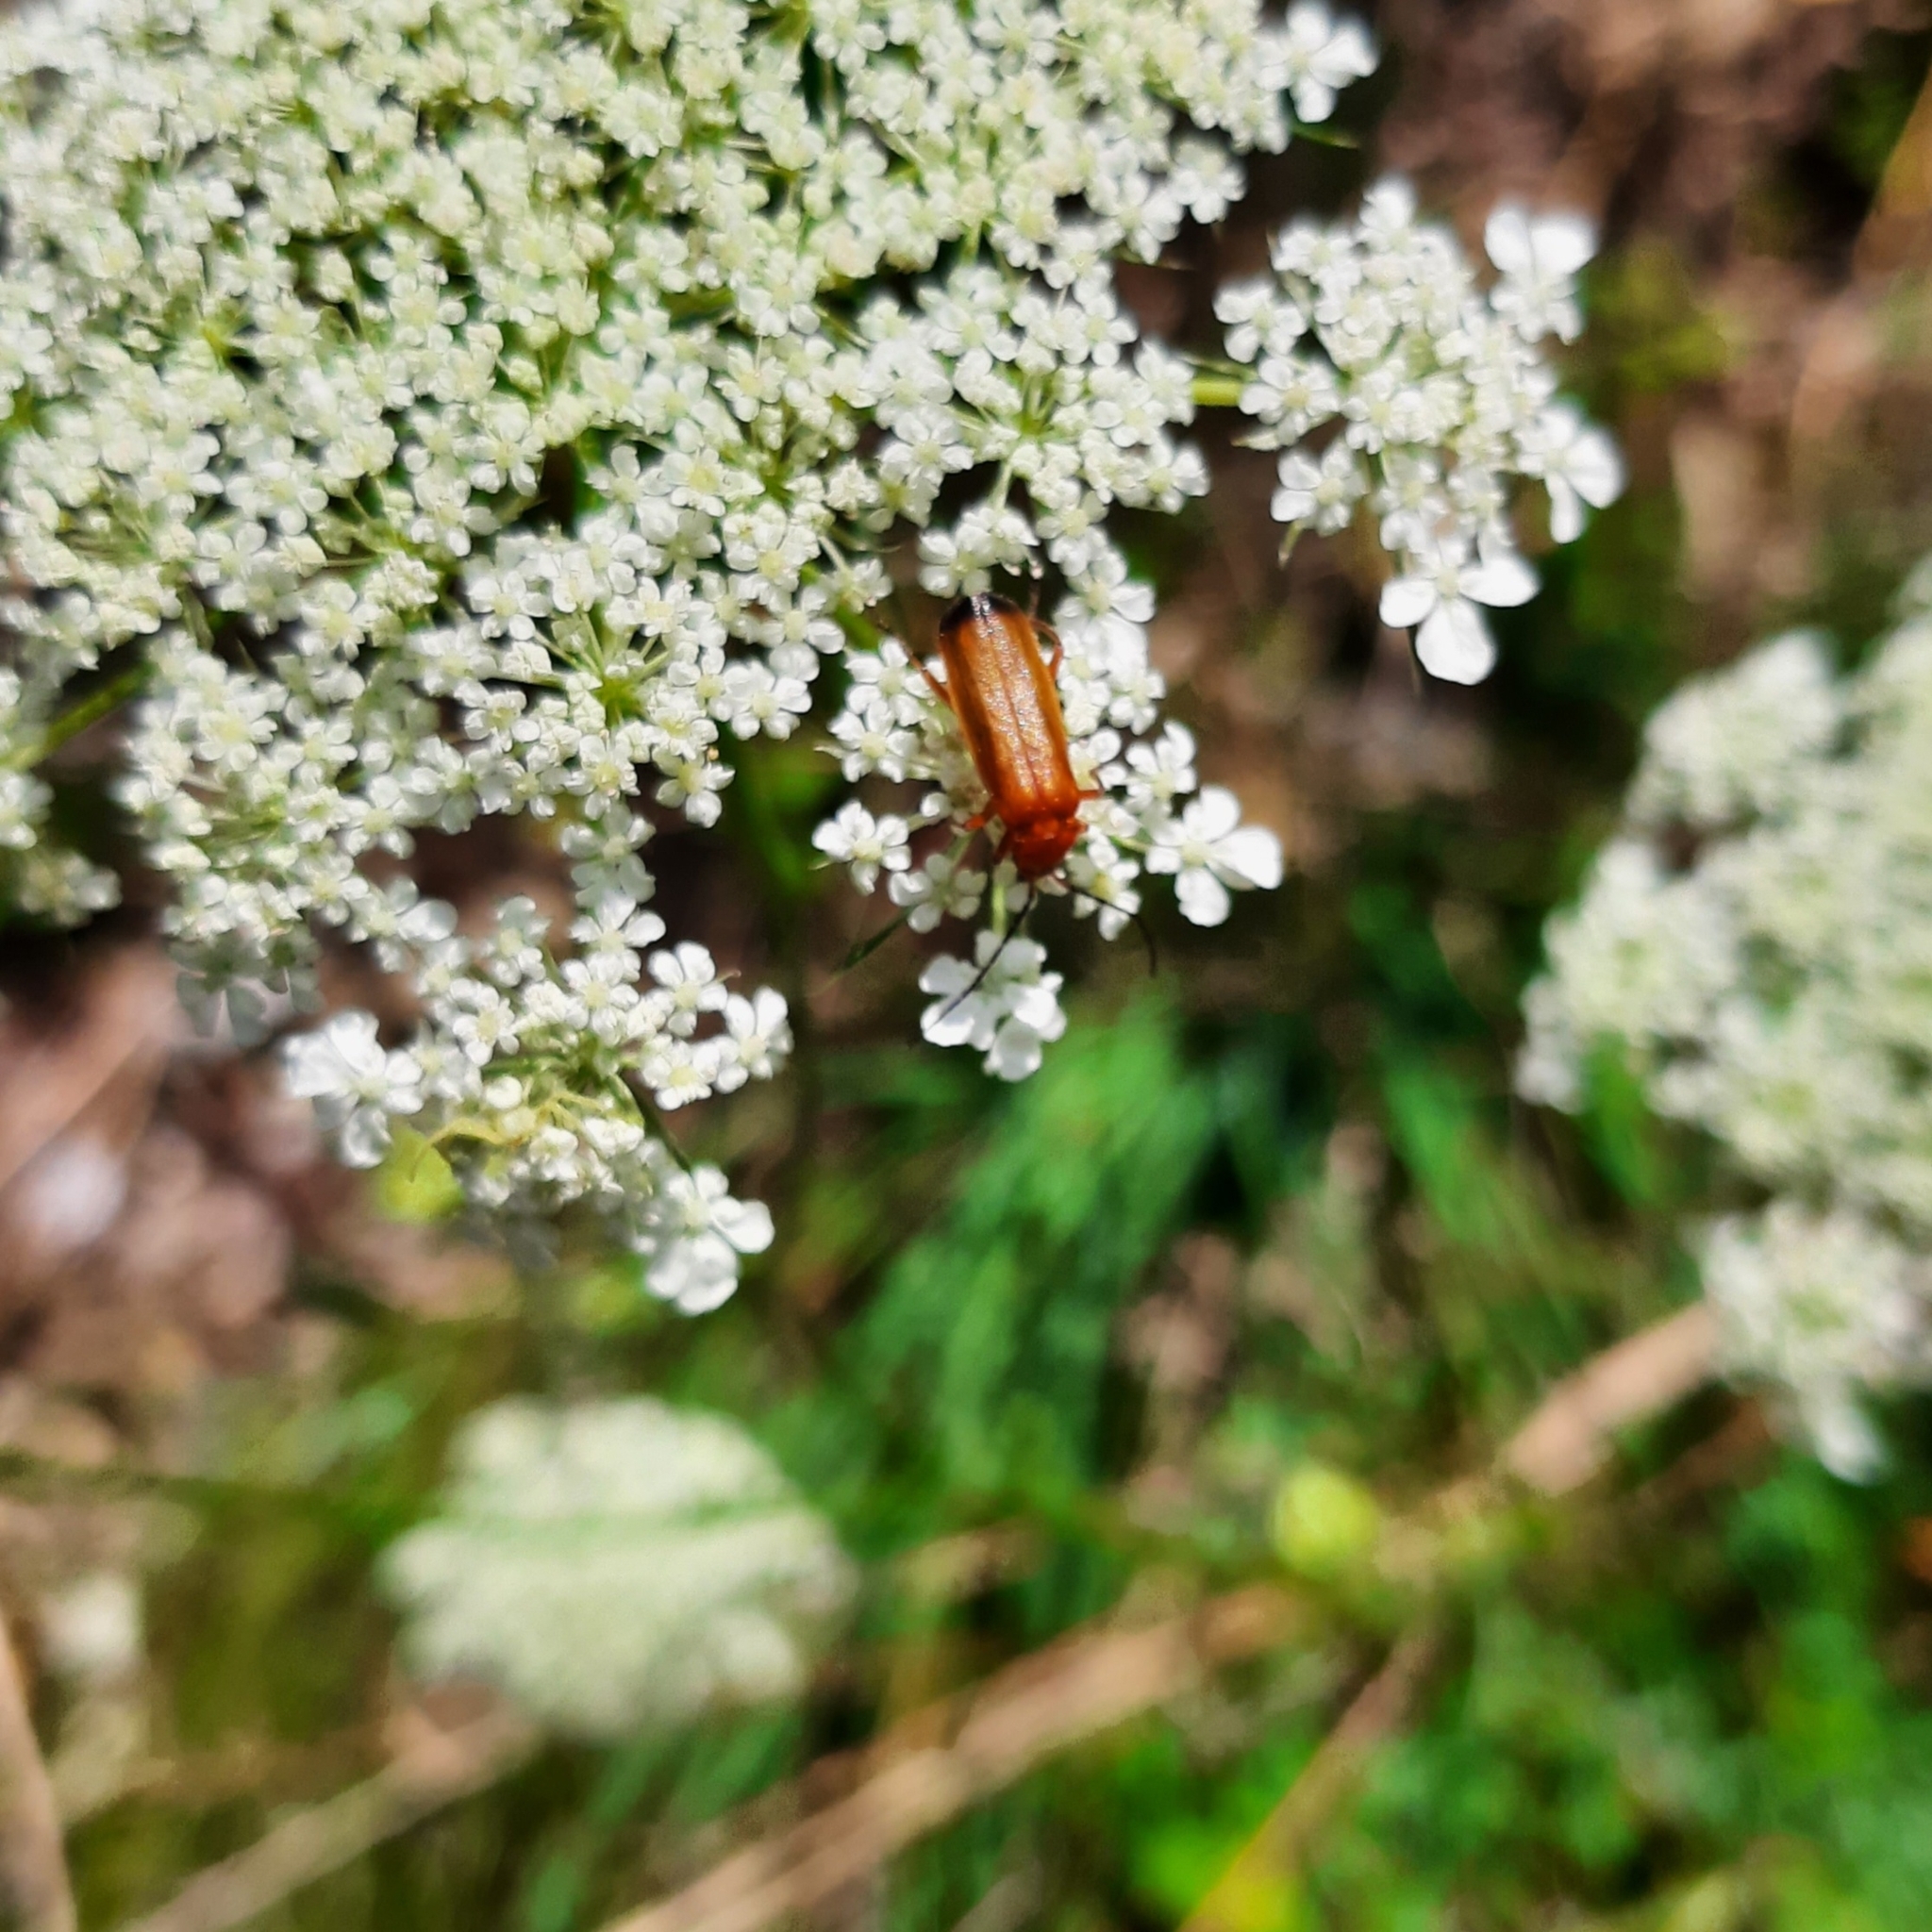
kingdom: Animalia
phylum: Arthropoda
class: Insecta
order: Coleoptera
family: Cantharidae
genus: Rhagonycha
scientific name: Rhagonycha fulva
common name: Common red soldier beetle
